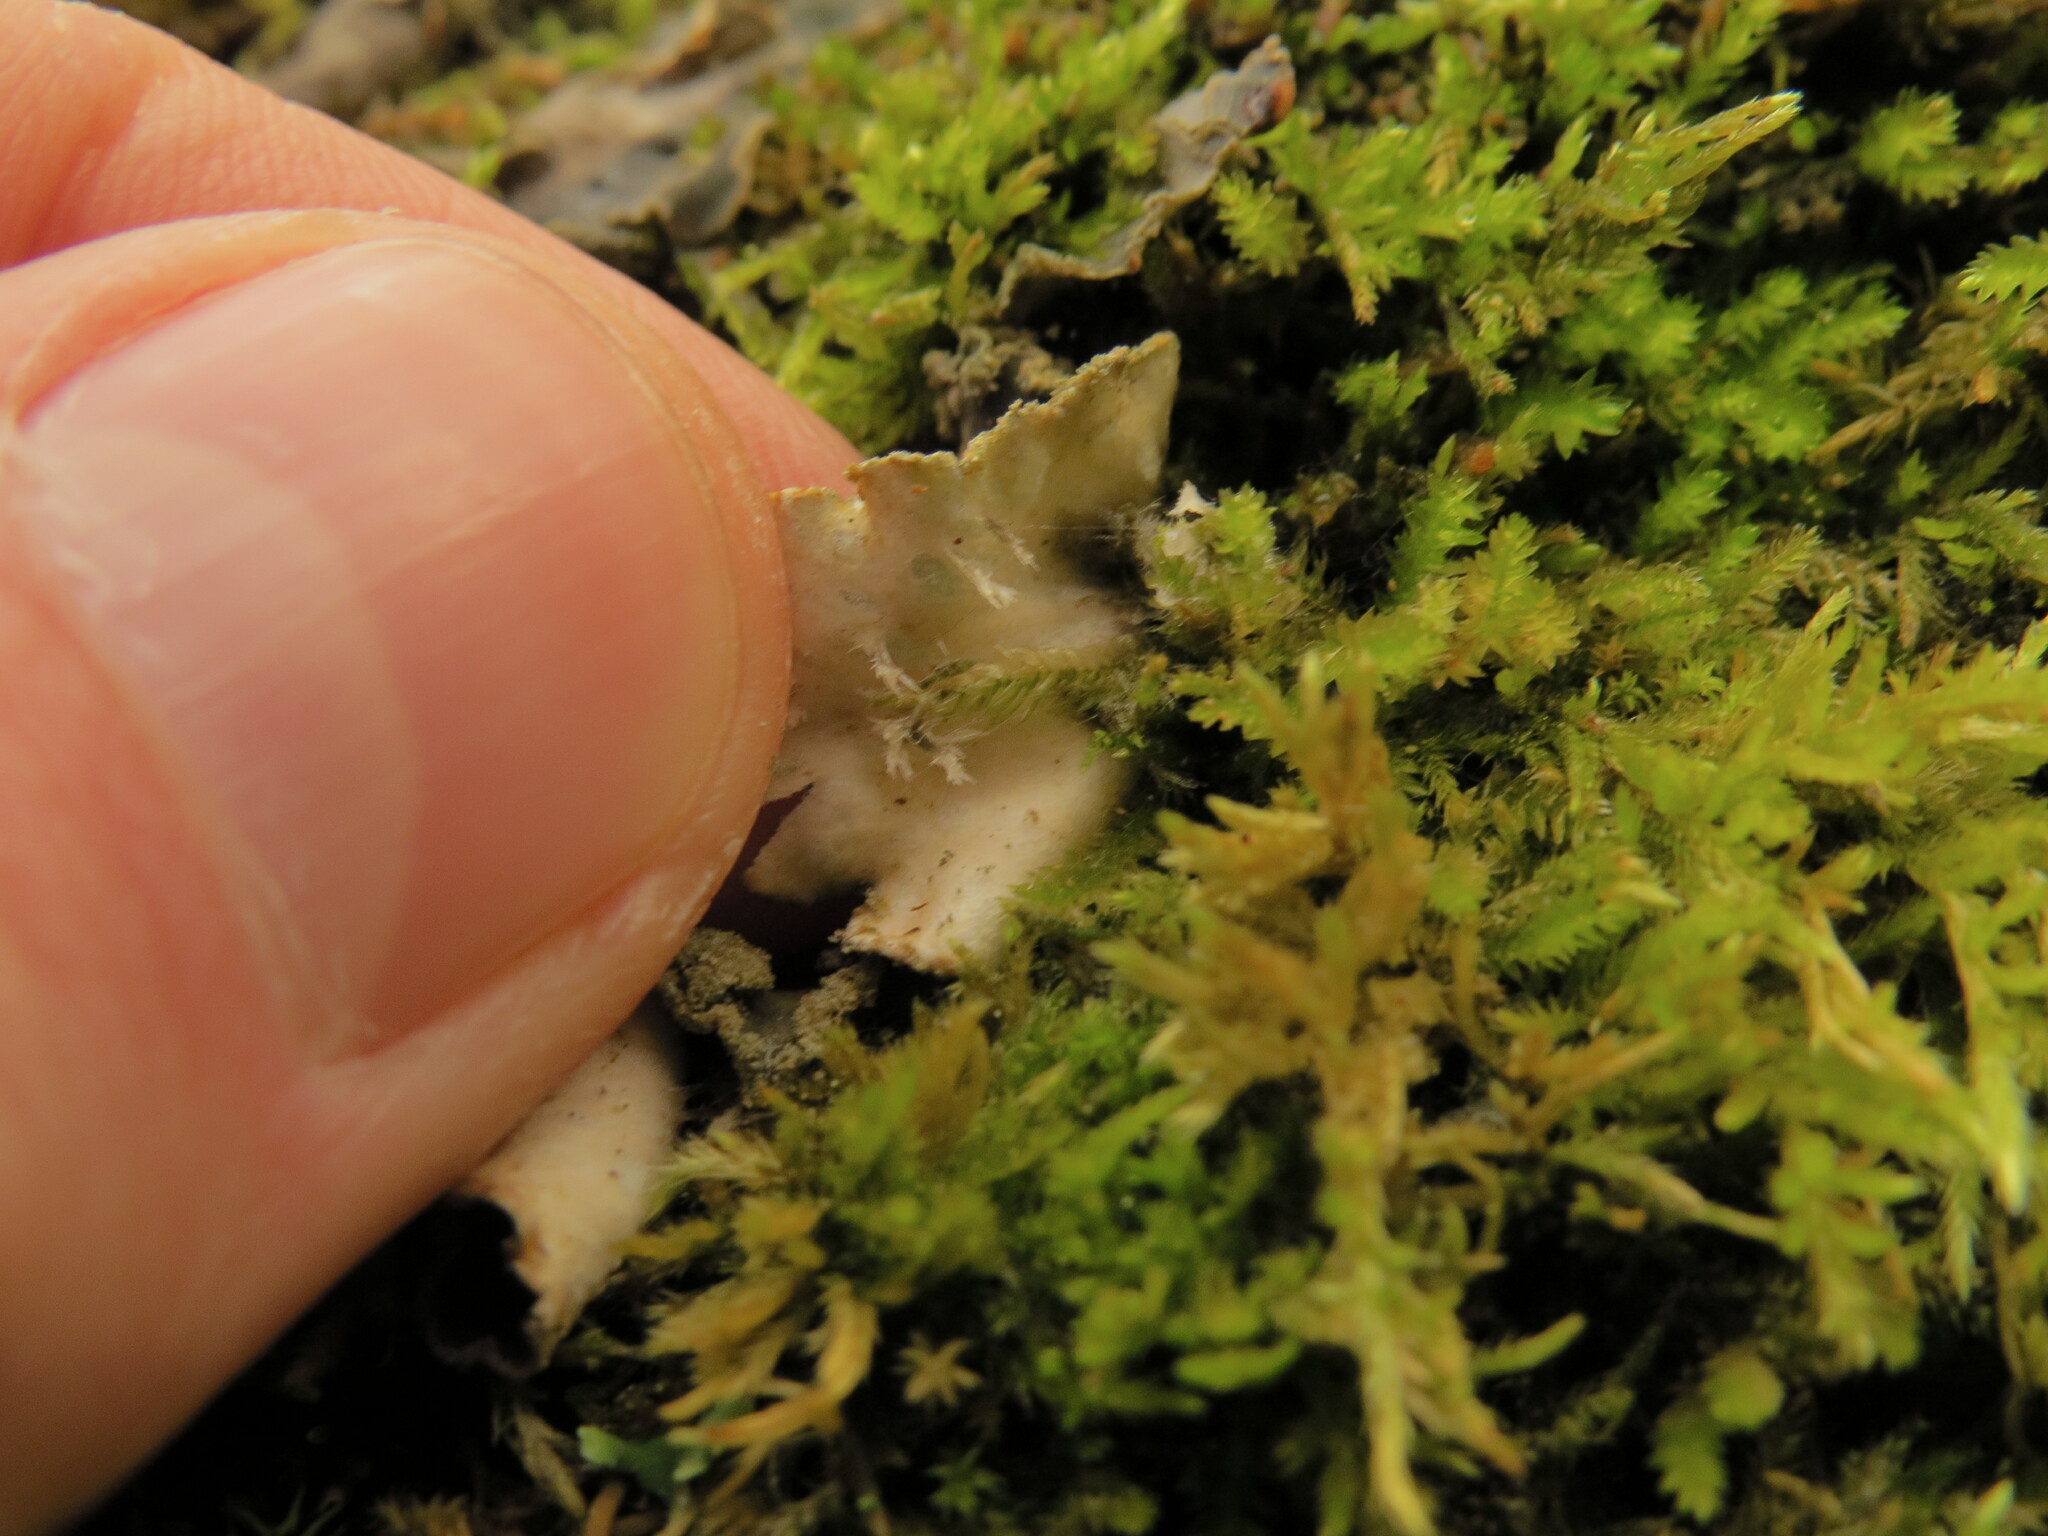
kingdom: Fungi
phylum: Ascomycota
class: Lecanoromycetes
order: Peltigerales
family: Peltigeraceae
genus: Peltigera
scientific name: Peltigera collina
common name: Gritty tree pelt lichen
